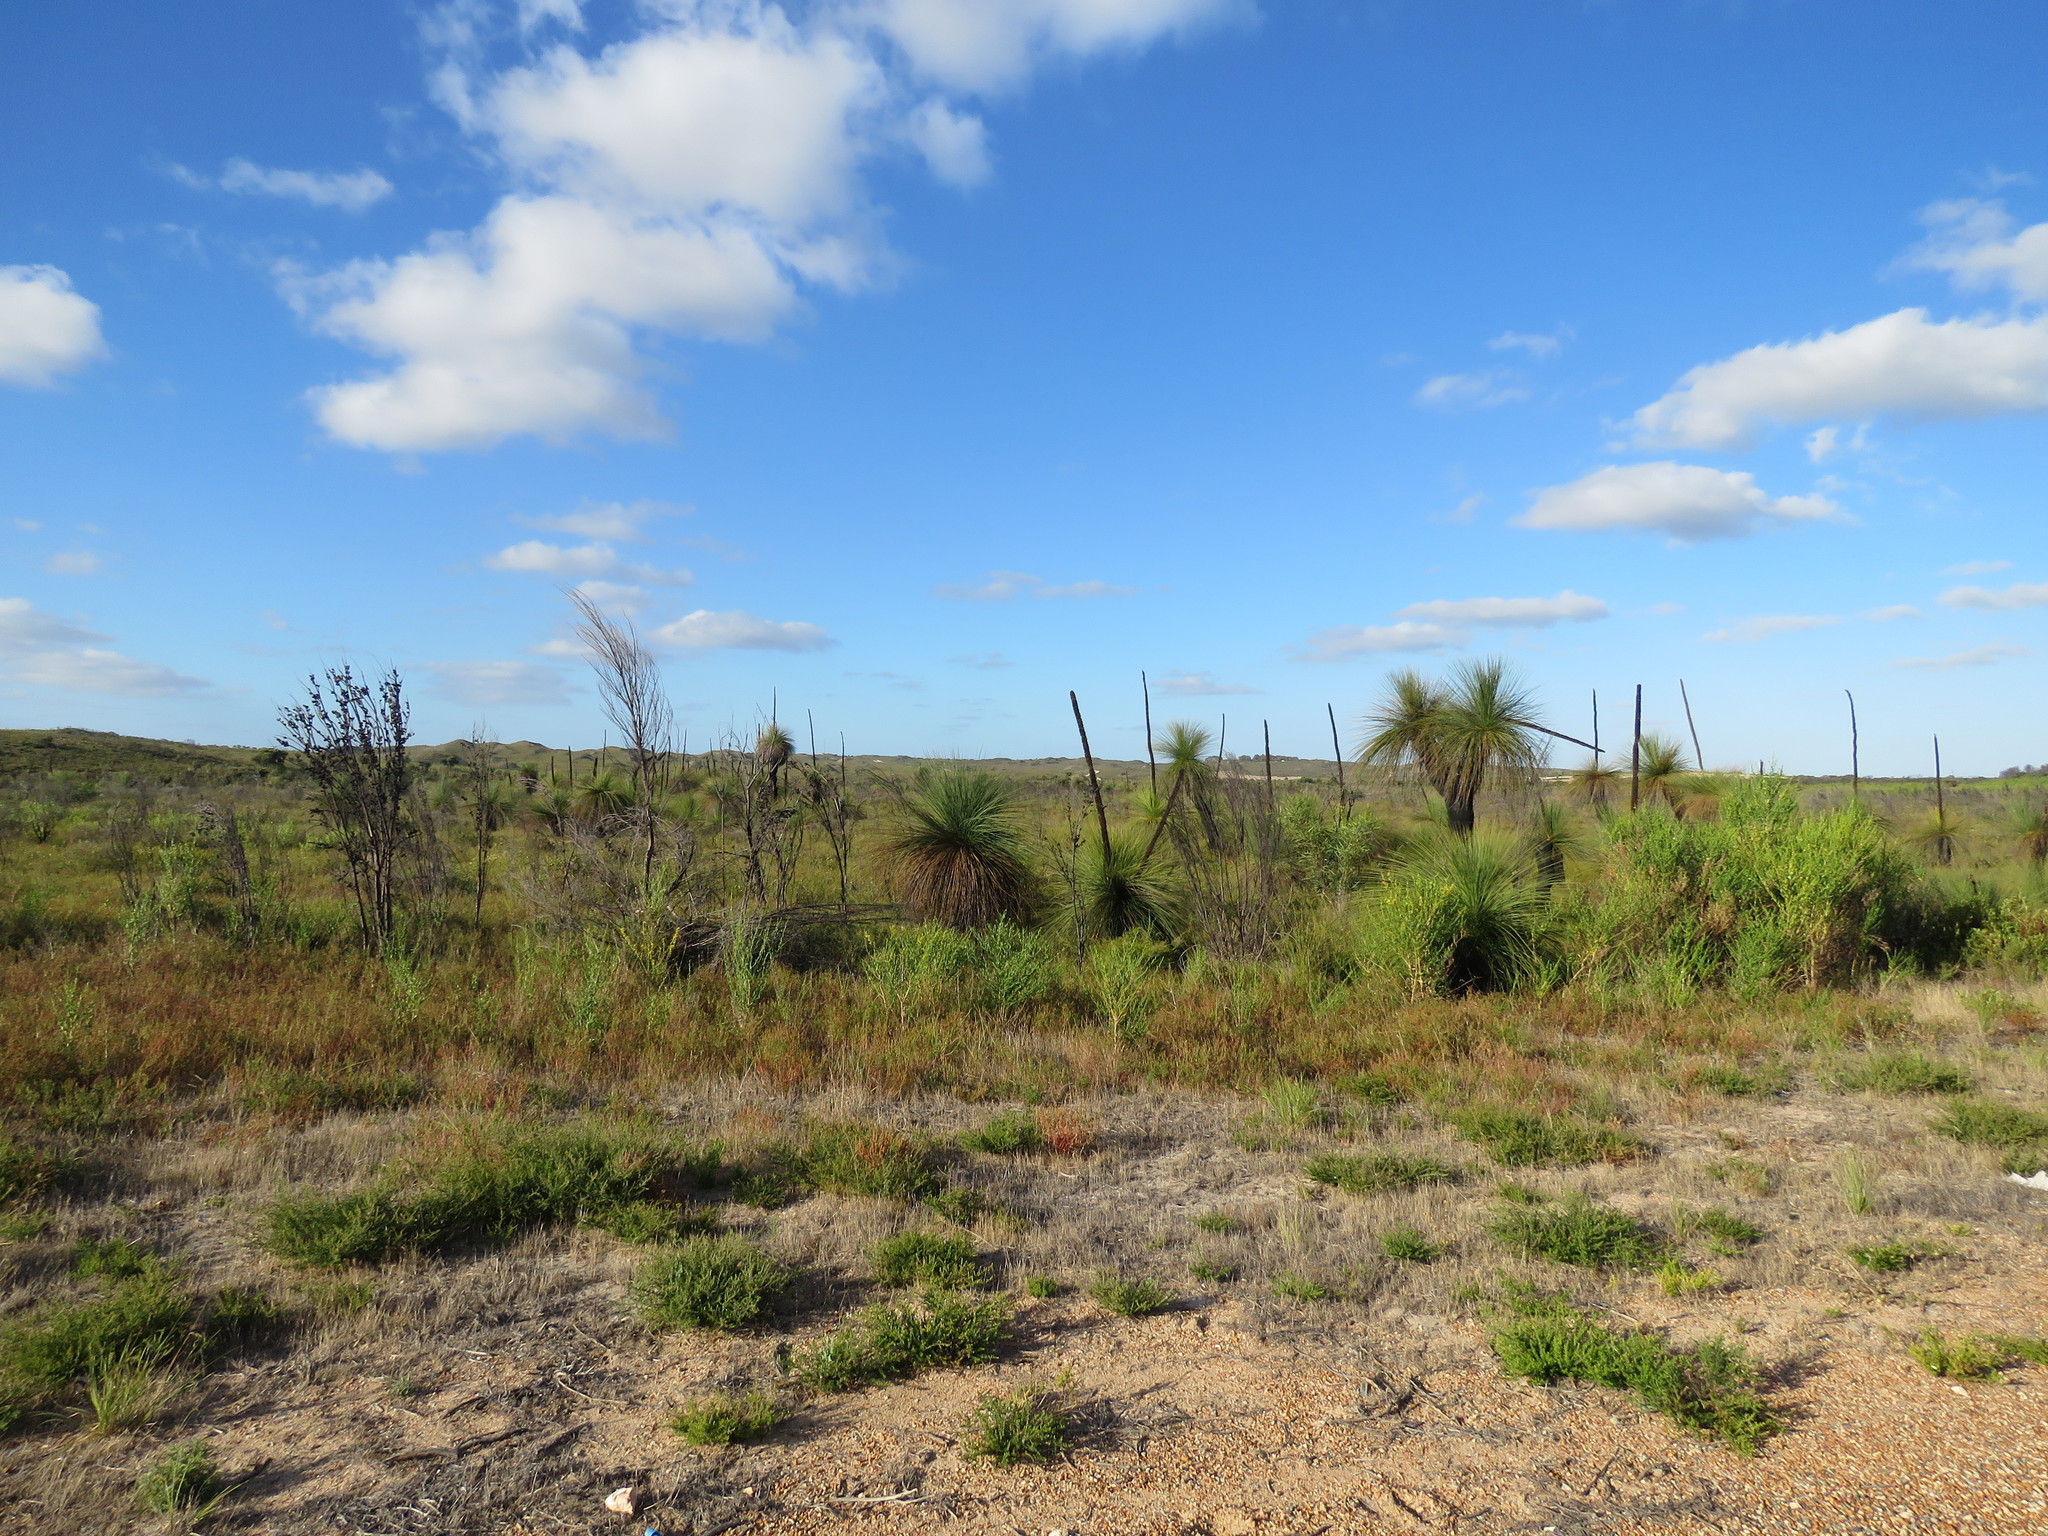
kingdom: Plantae
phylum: Tracheophyta
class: Liliopsida
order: Asparagales
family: Asphodelaceae
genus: Xanthorrhoea
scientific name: Xanthorrhoea preissii
